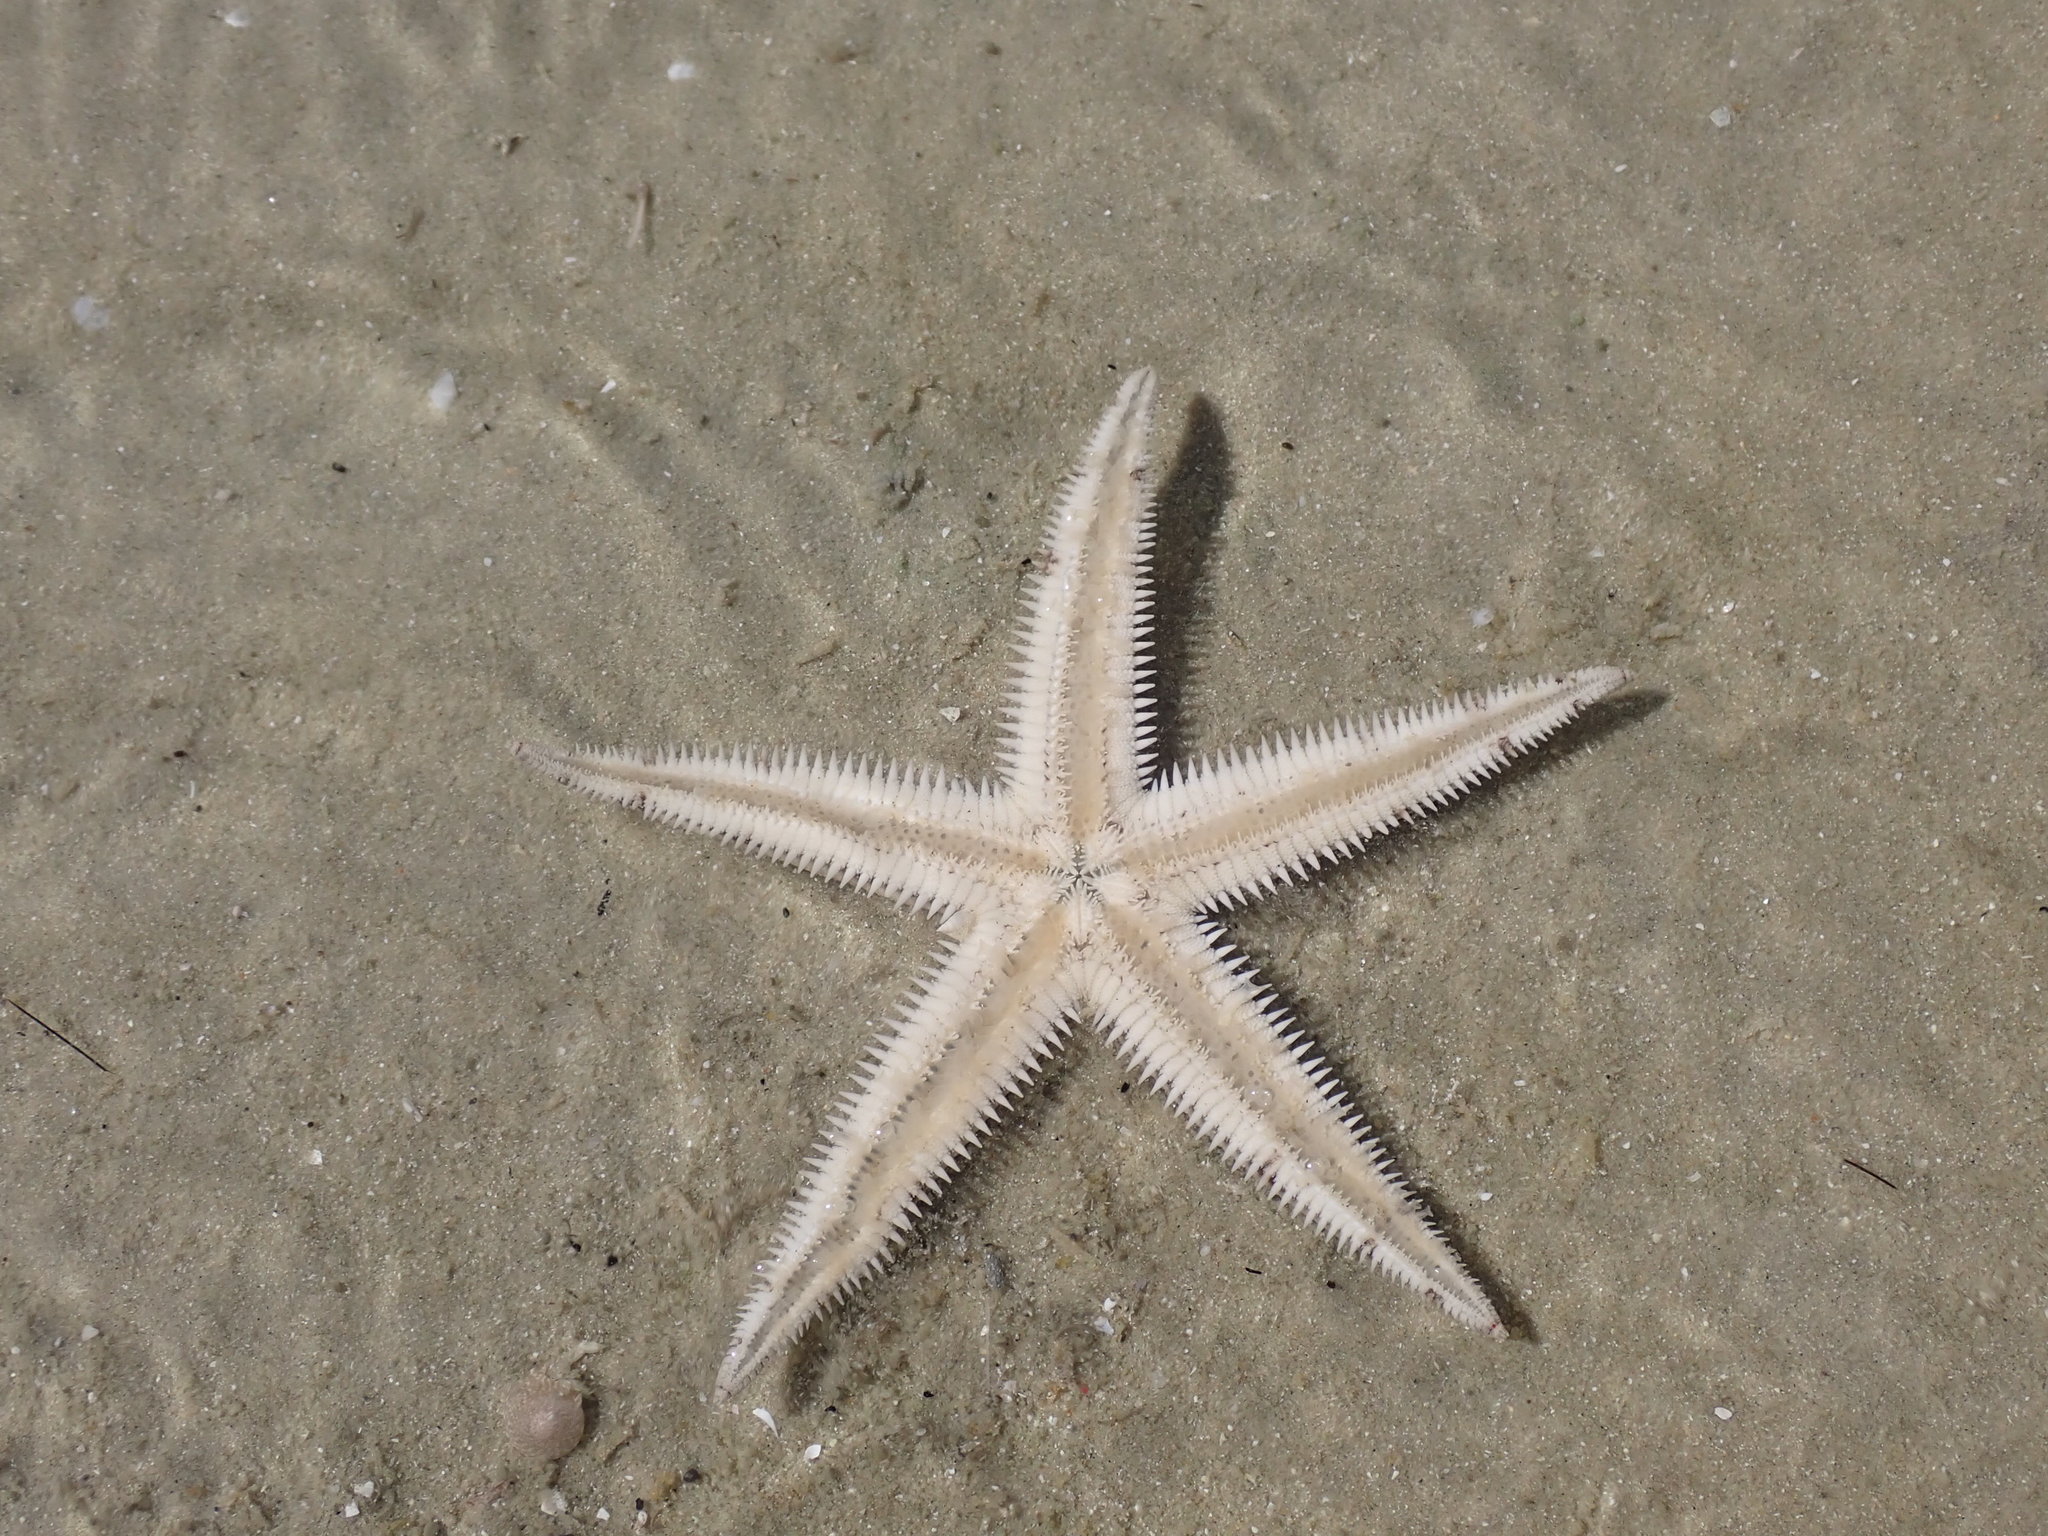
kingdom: Animalia
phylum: Echinodermata
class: Asteroidea
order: Valvatida
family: Archasteridae
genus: Archaster
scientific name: Archaster typicus
